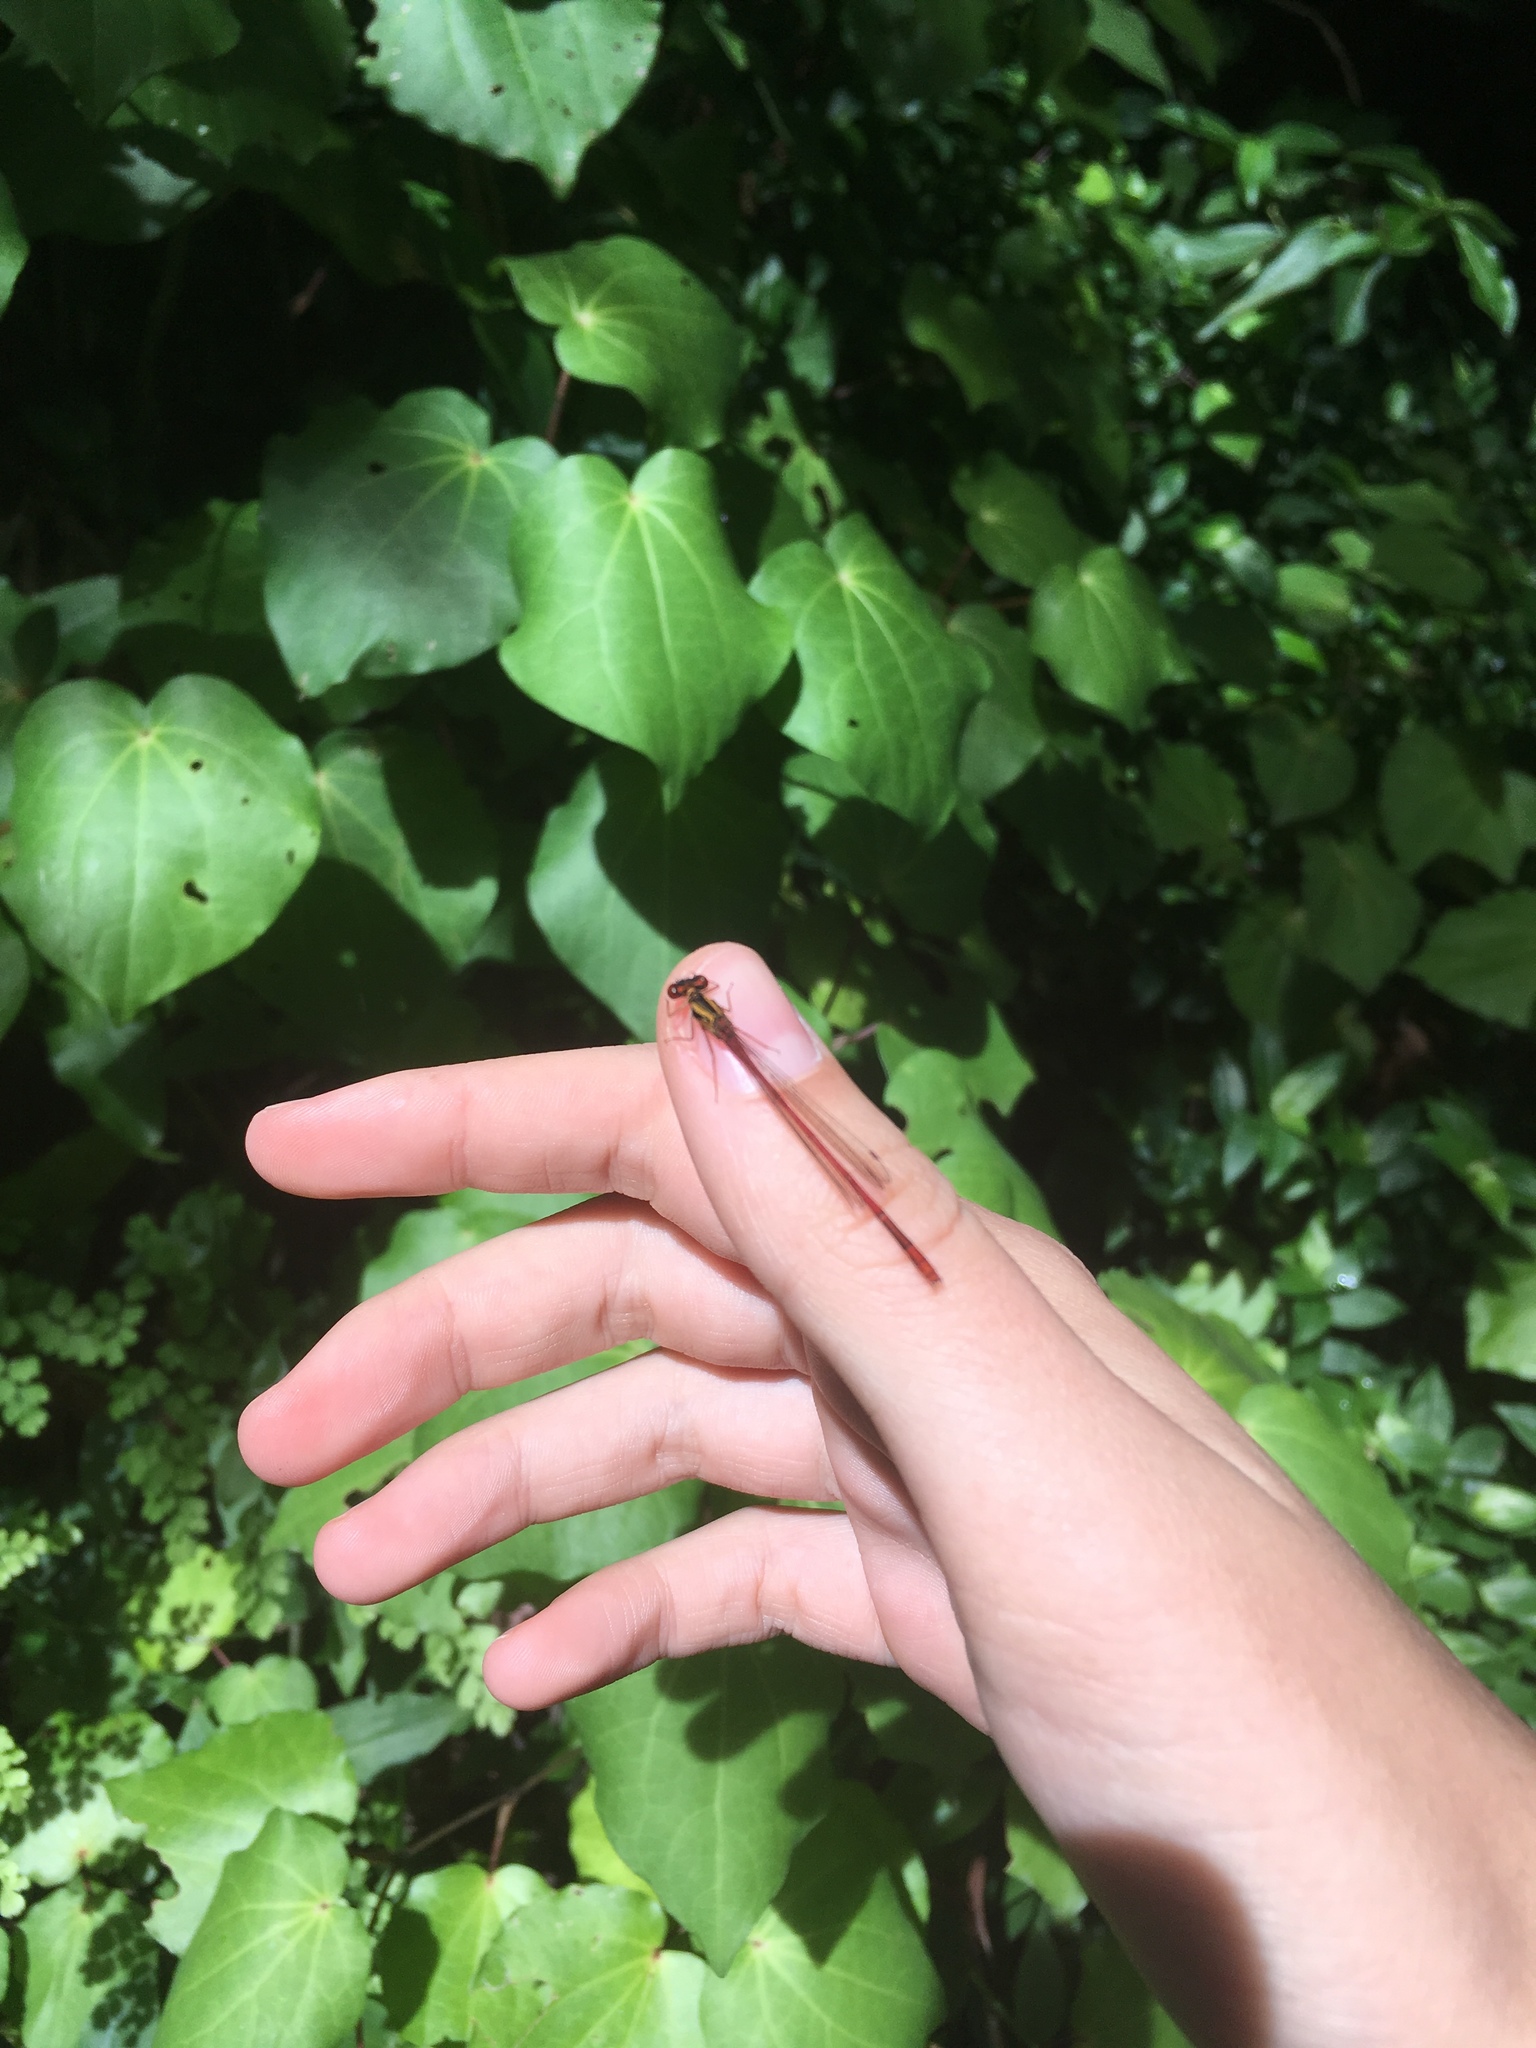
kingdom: Animalia
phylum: Arthropoda
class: Insecta
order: Odonata
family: Coenagrionidae
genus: Xanthocnemis
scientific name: Xanthocnemis zealandica
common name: Common redcoat damselfly
